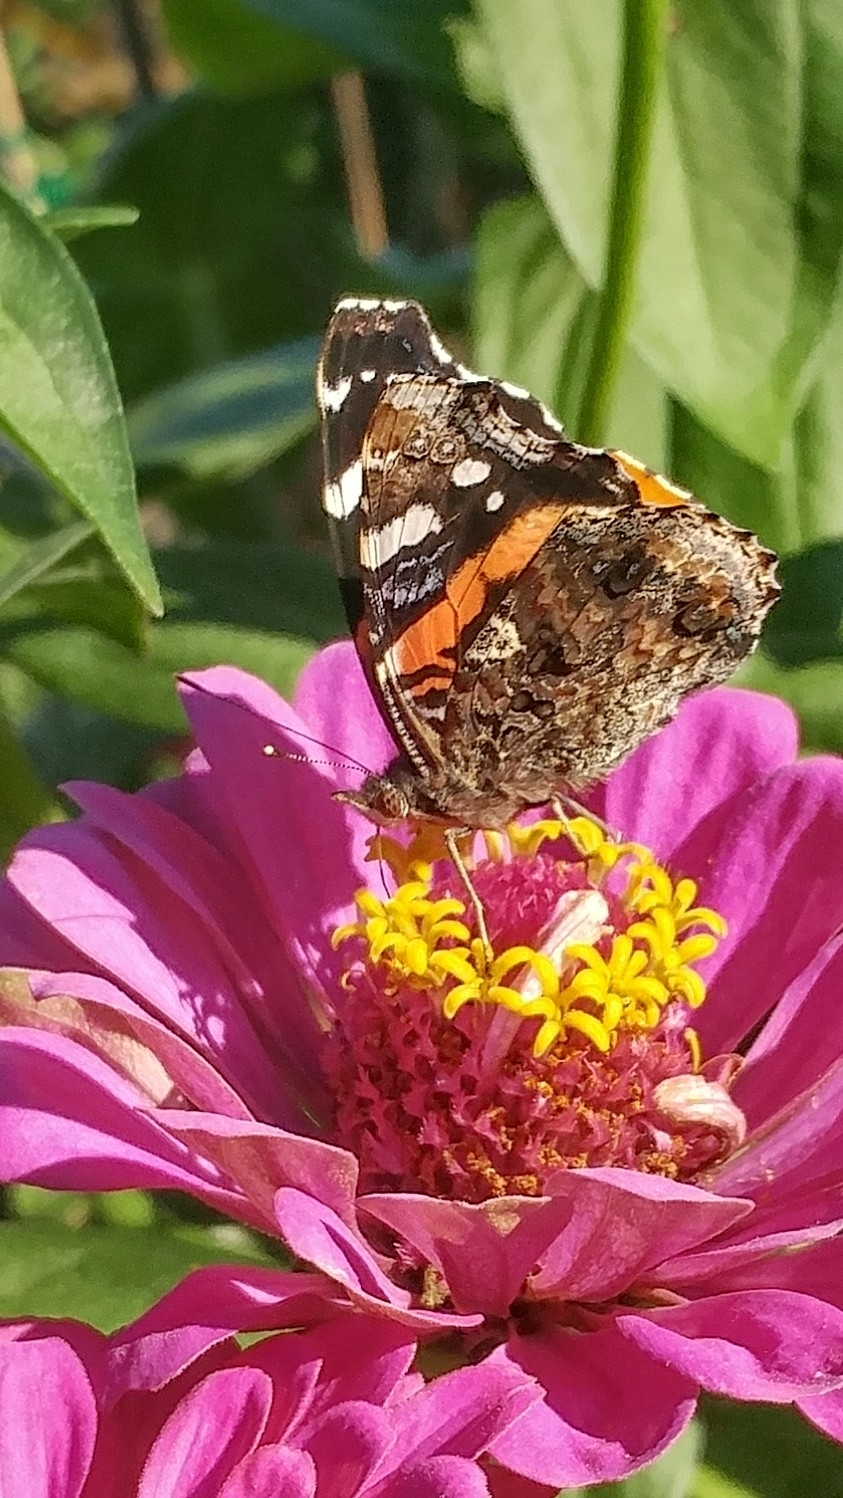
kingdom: Animalia
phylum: Arthropoda
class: Insecta
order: Lepidoptera
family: Nymphalidae
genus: Vanessa
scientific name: Vanessa atalanta
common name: Red admiral
